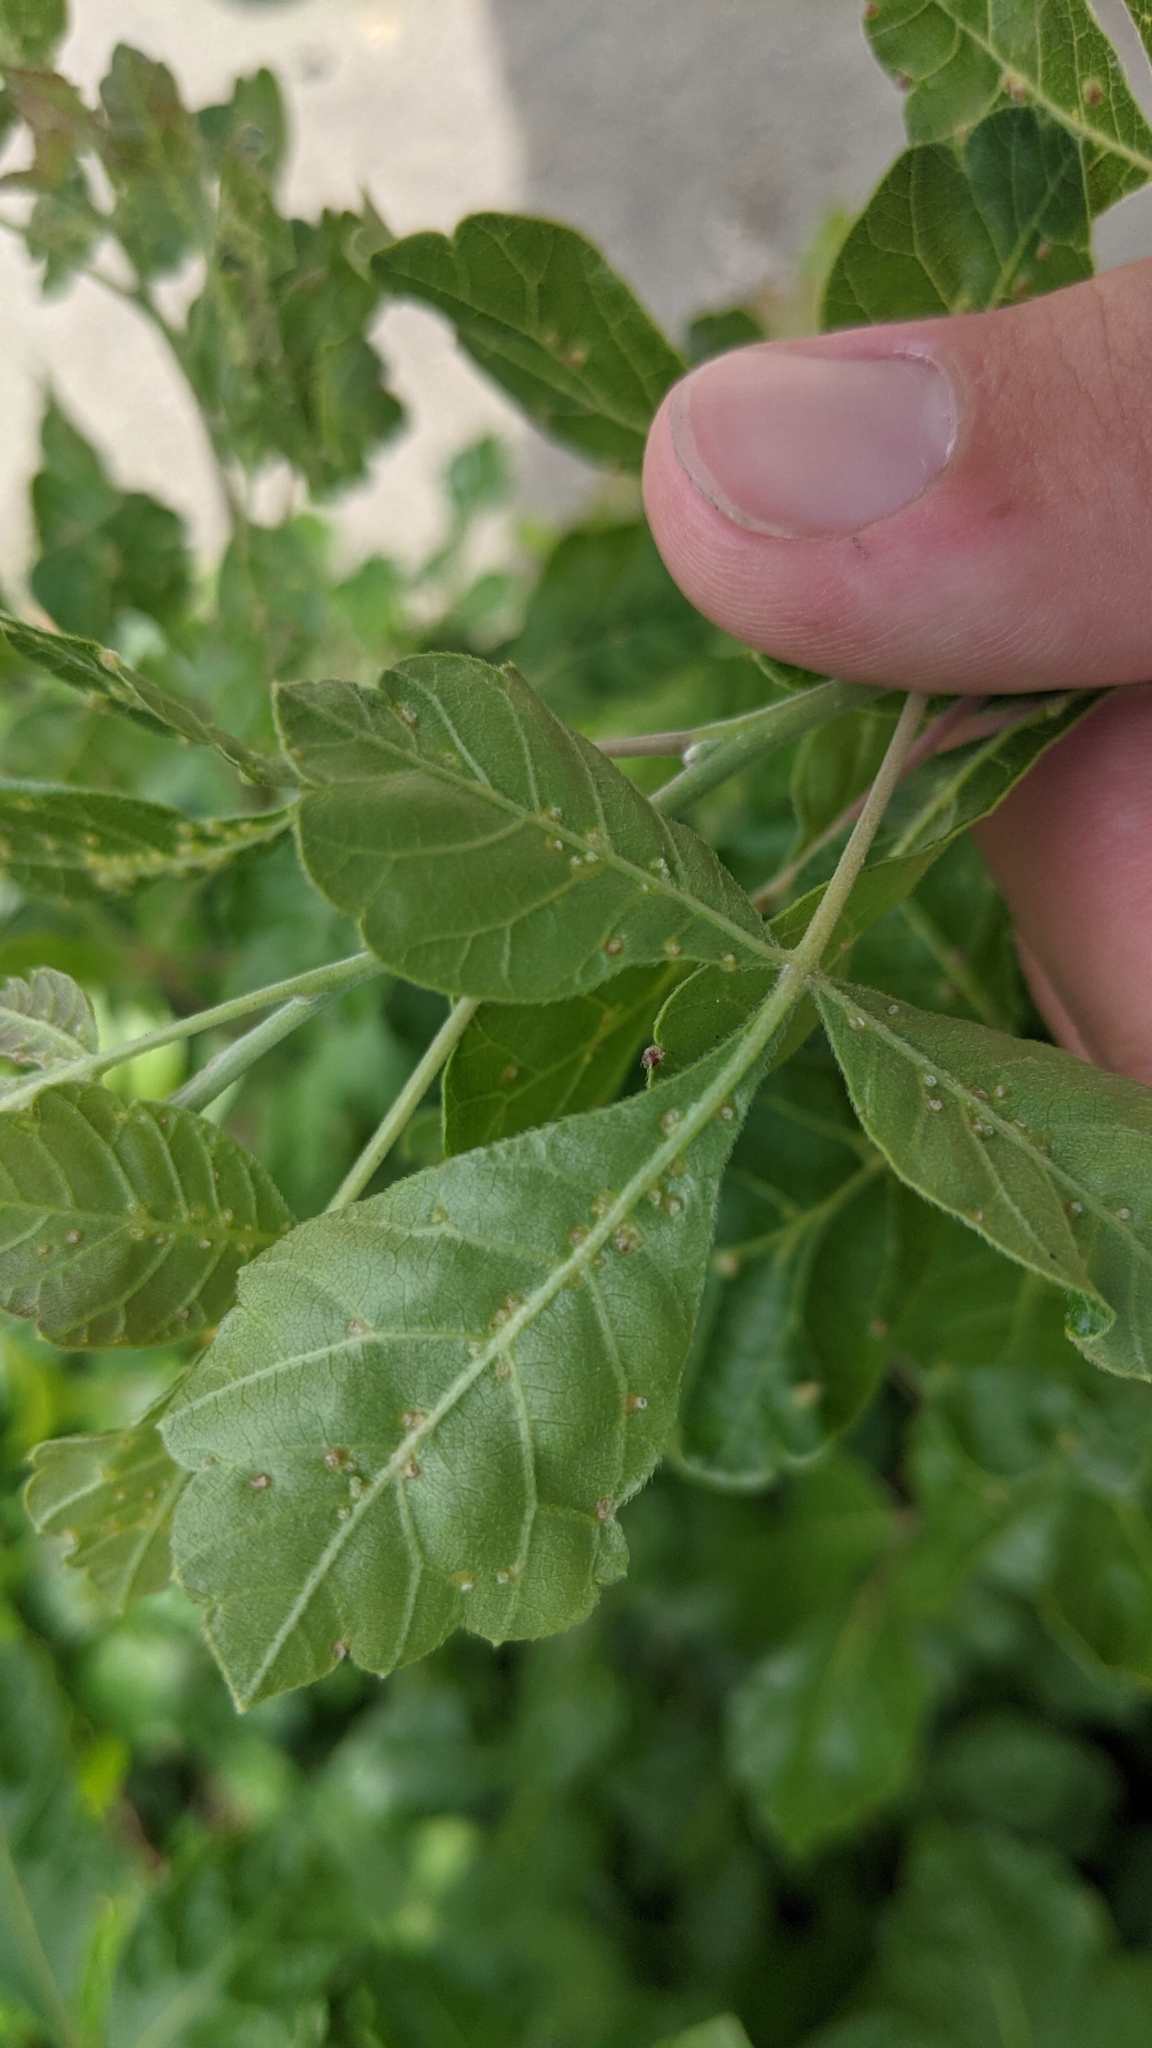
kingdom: Animalia
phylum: Arthropoda
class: Arachnida
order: Trombidiformes
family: Eriophyidae
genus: Aculops
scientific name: Aculops
